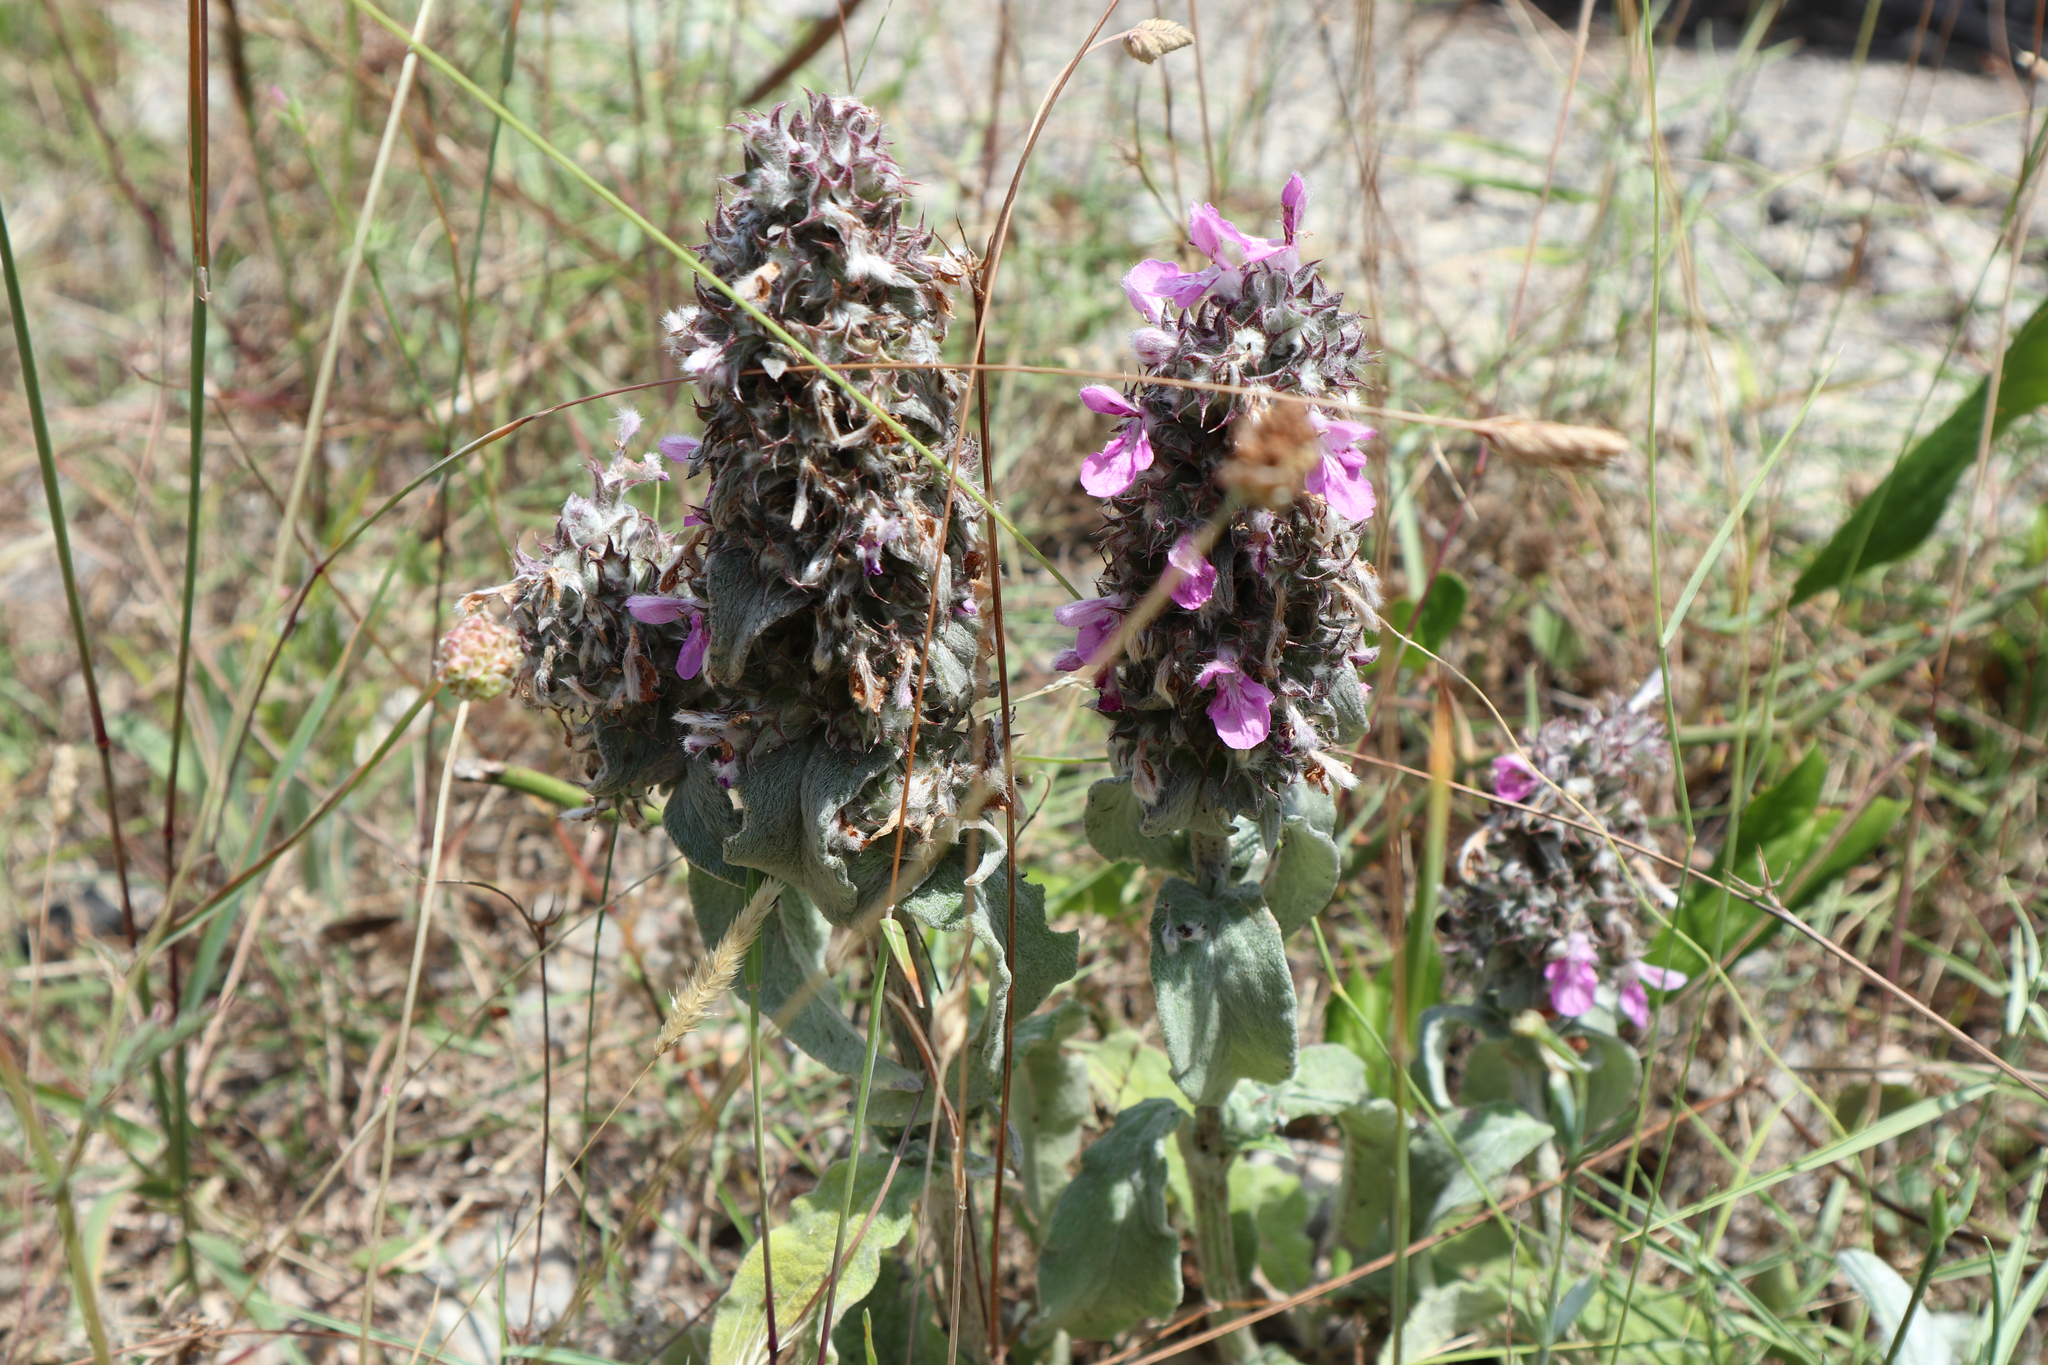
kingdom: Plantae
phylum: Tracheophyta
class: Magnoliopsida
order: Lamiales
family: Lamiaceae
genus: Stachys
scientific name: Stachys cretica
